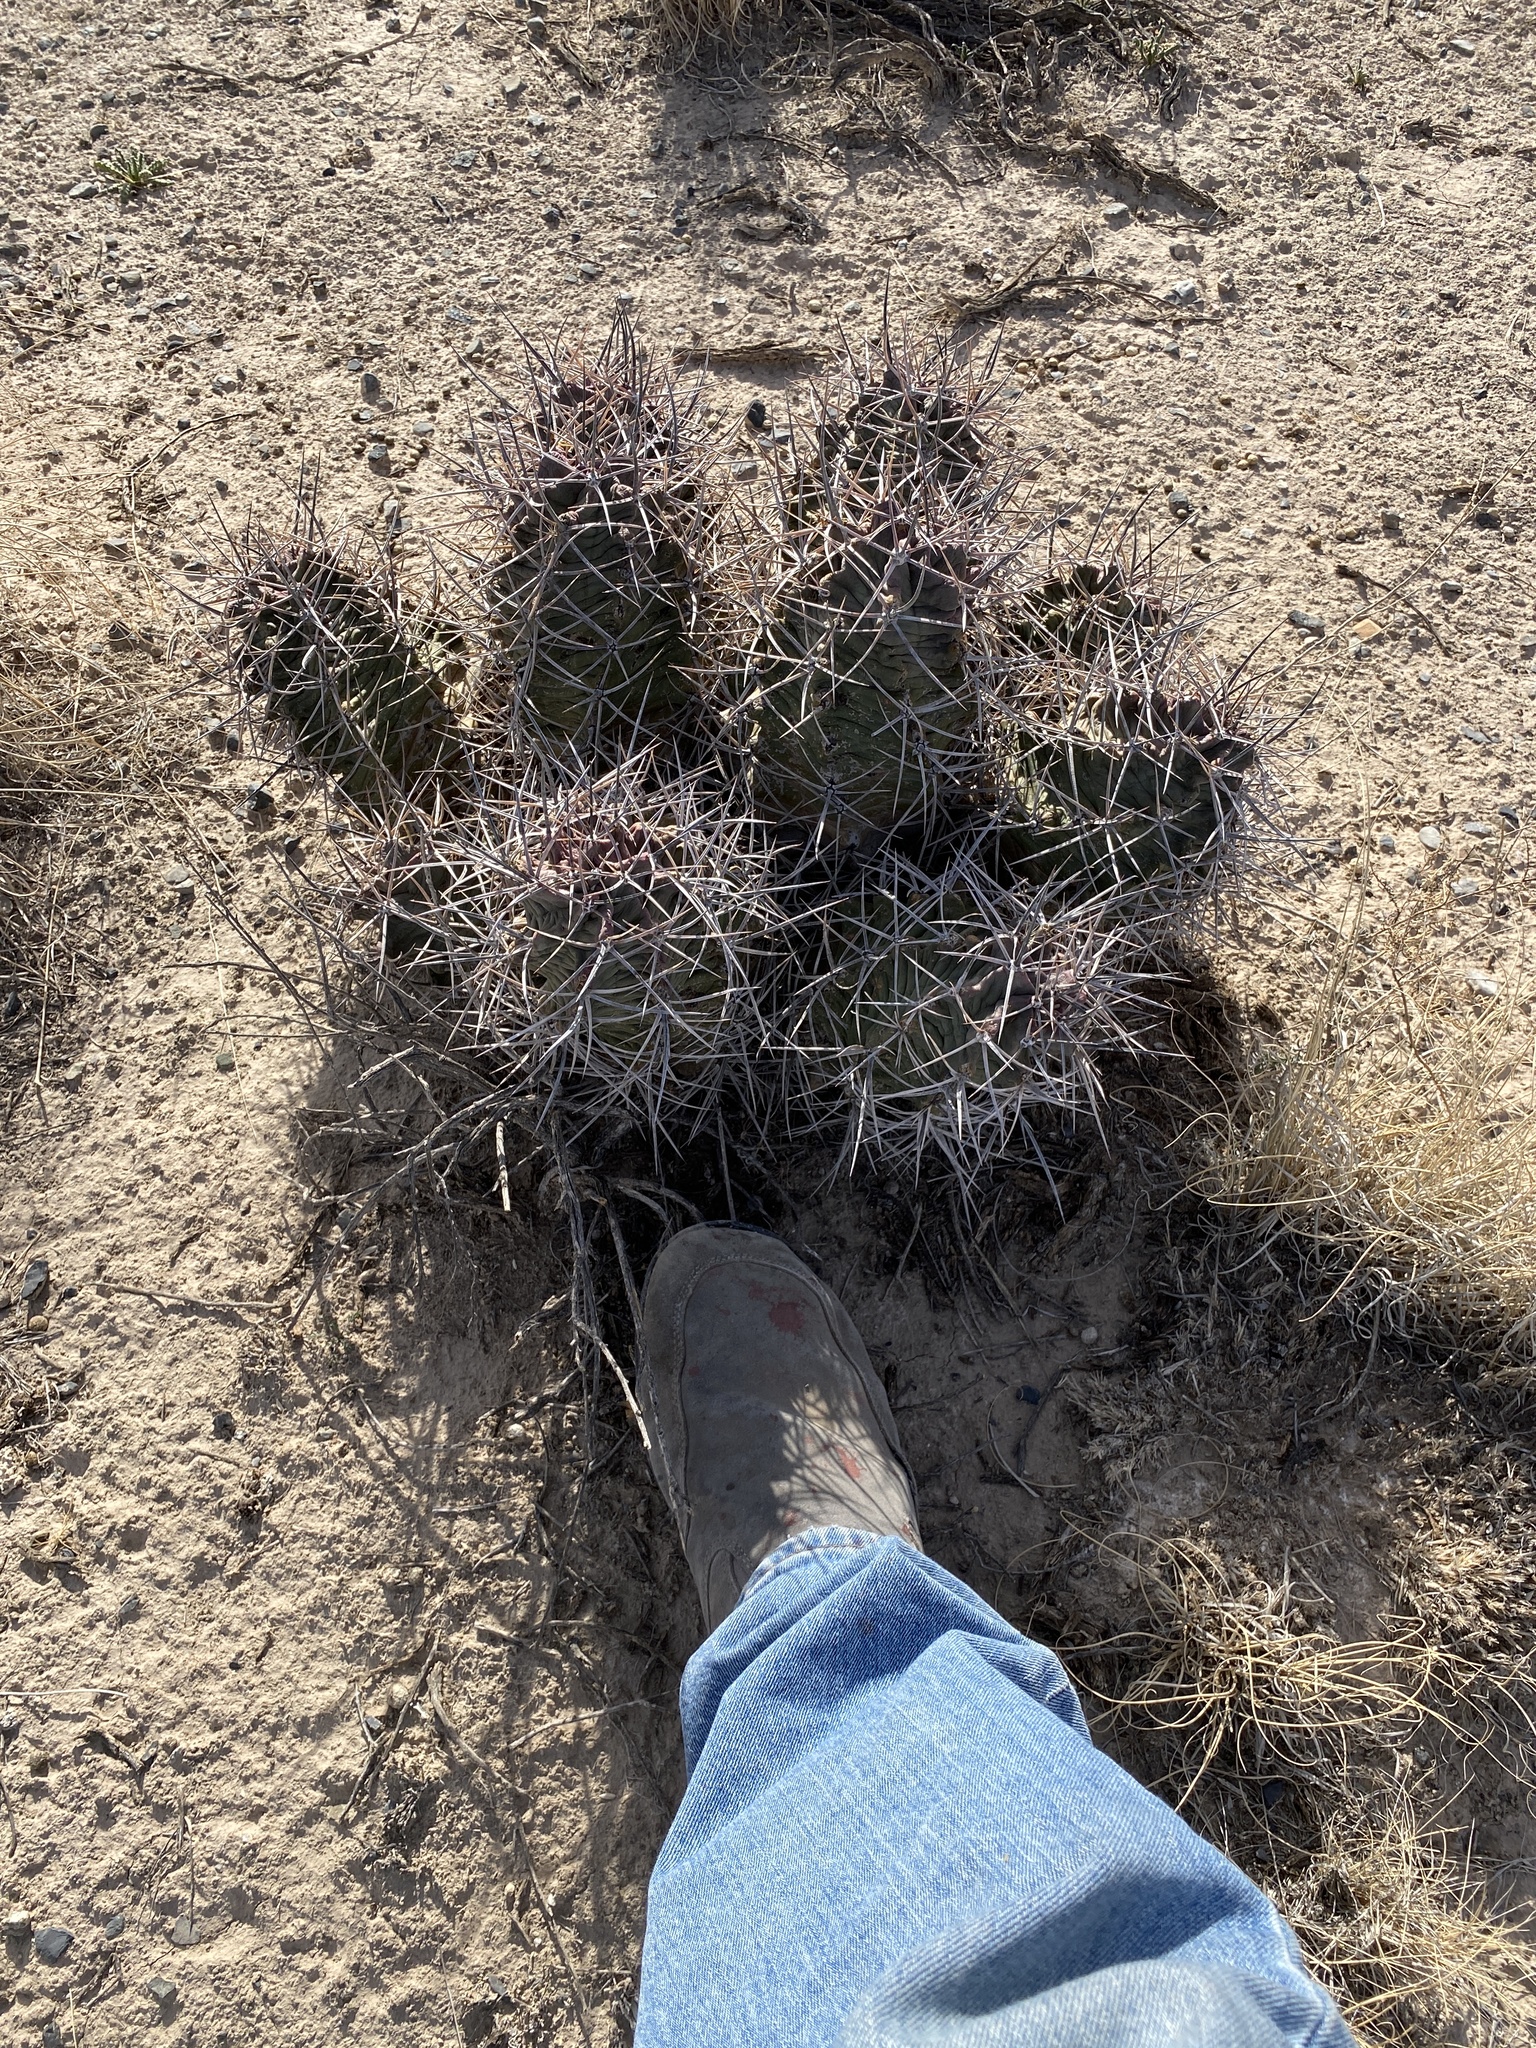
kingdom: Plantae
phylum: Tracheophyta
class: Magnoliopsida
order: Caryophyllales
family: Cactaceae
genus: Echinocereus
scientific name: Echinocereus triglochidiatus
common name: Claretcup hedgehog
